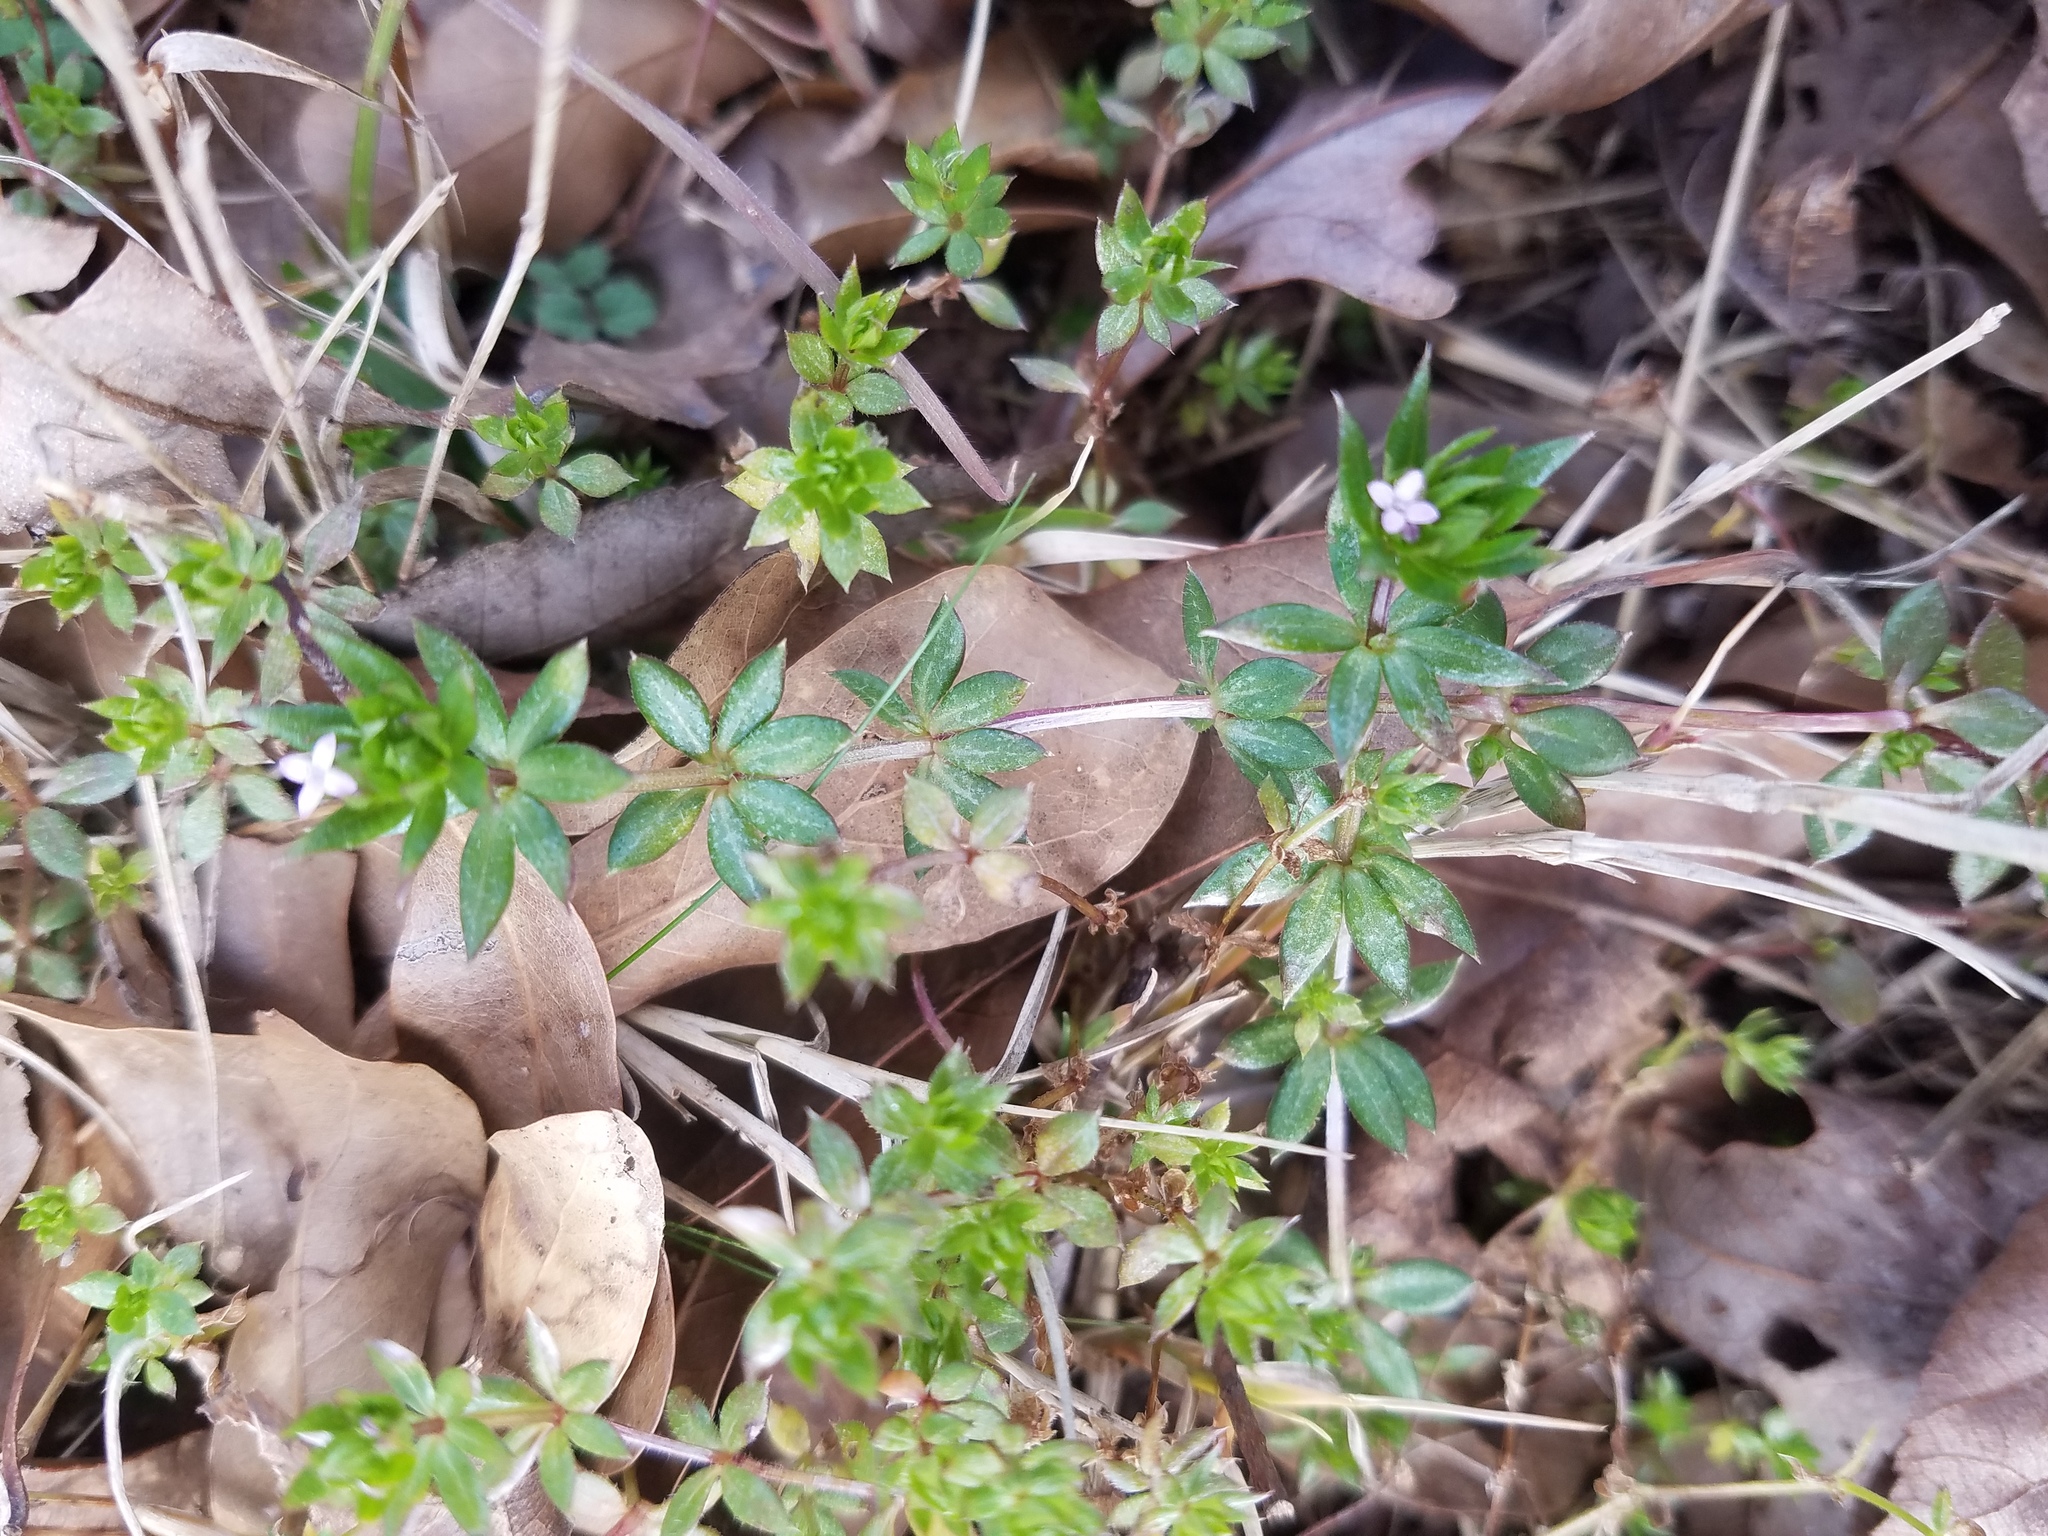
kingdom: Plantae
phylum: Tracheophyta
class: Magnoliopsida
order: Gentianales
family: Rubiaceae
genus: Sherardia
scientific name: Sherardia arvensis
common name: Field madder
